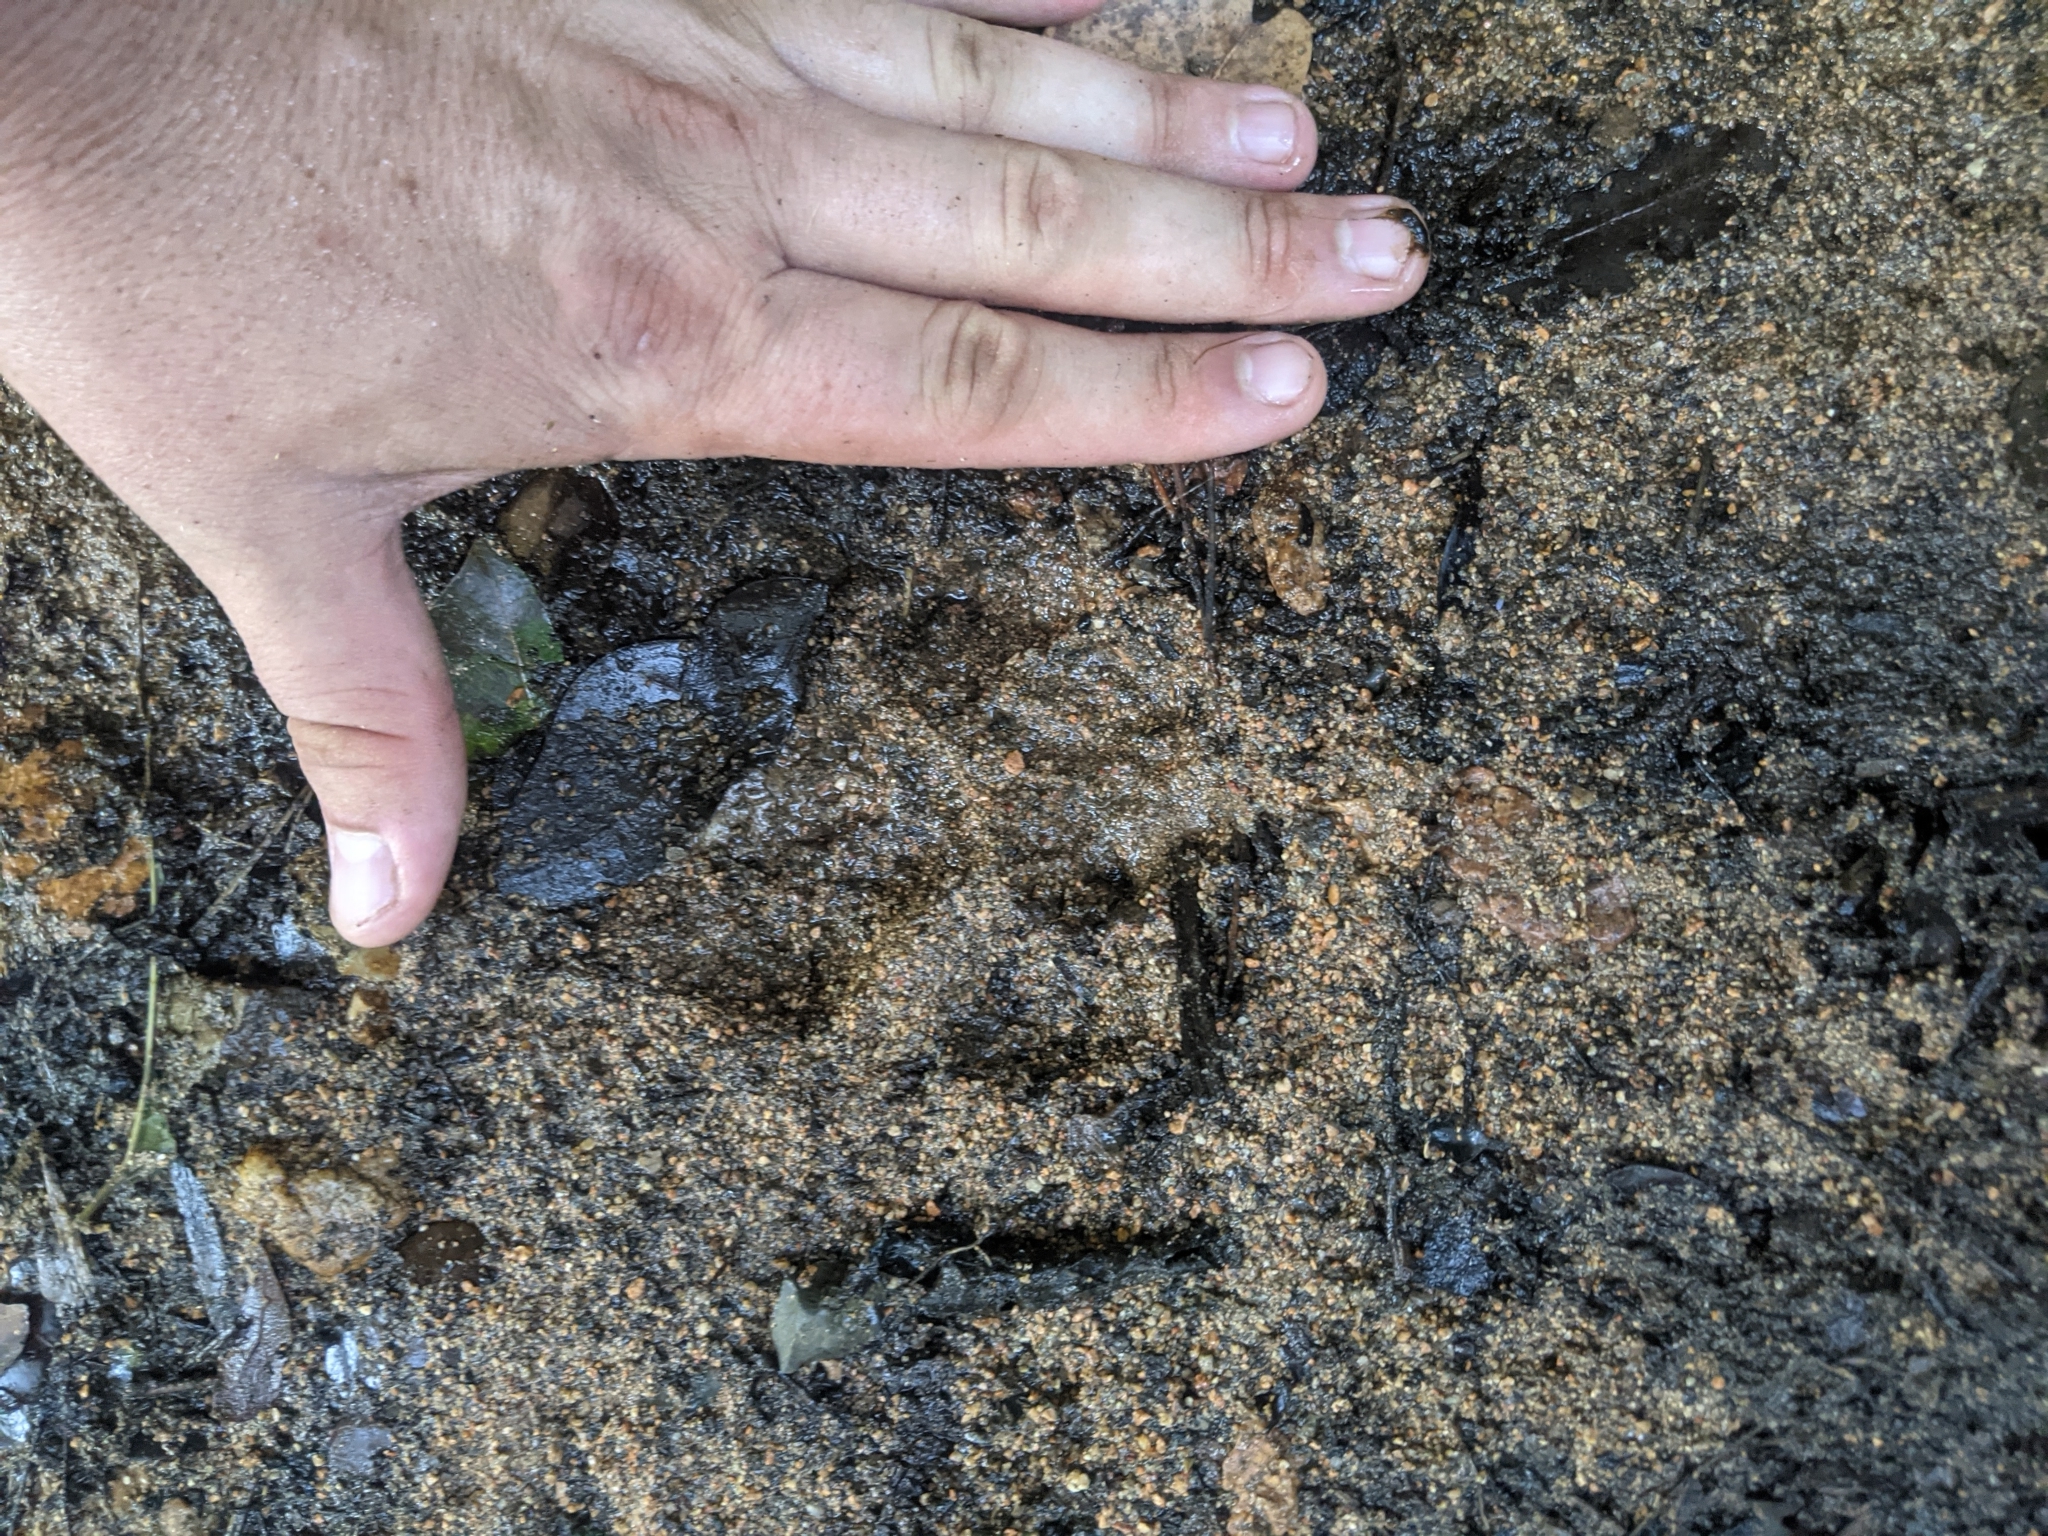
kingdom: Animalia
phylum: Chordata
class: Mammalia
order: Carnivora
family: Felidae
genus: Puma
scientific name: Puma concolor
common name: Puma
